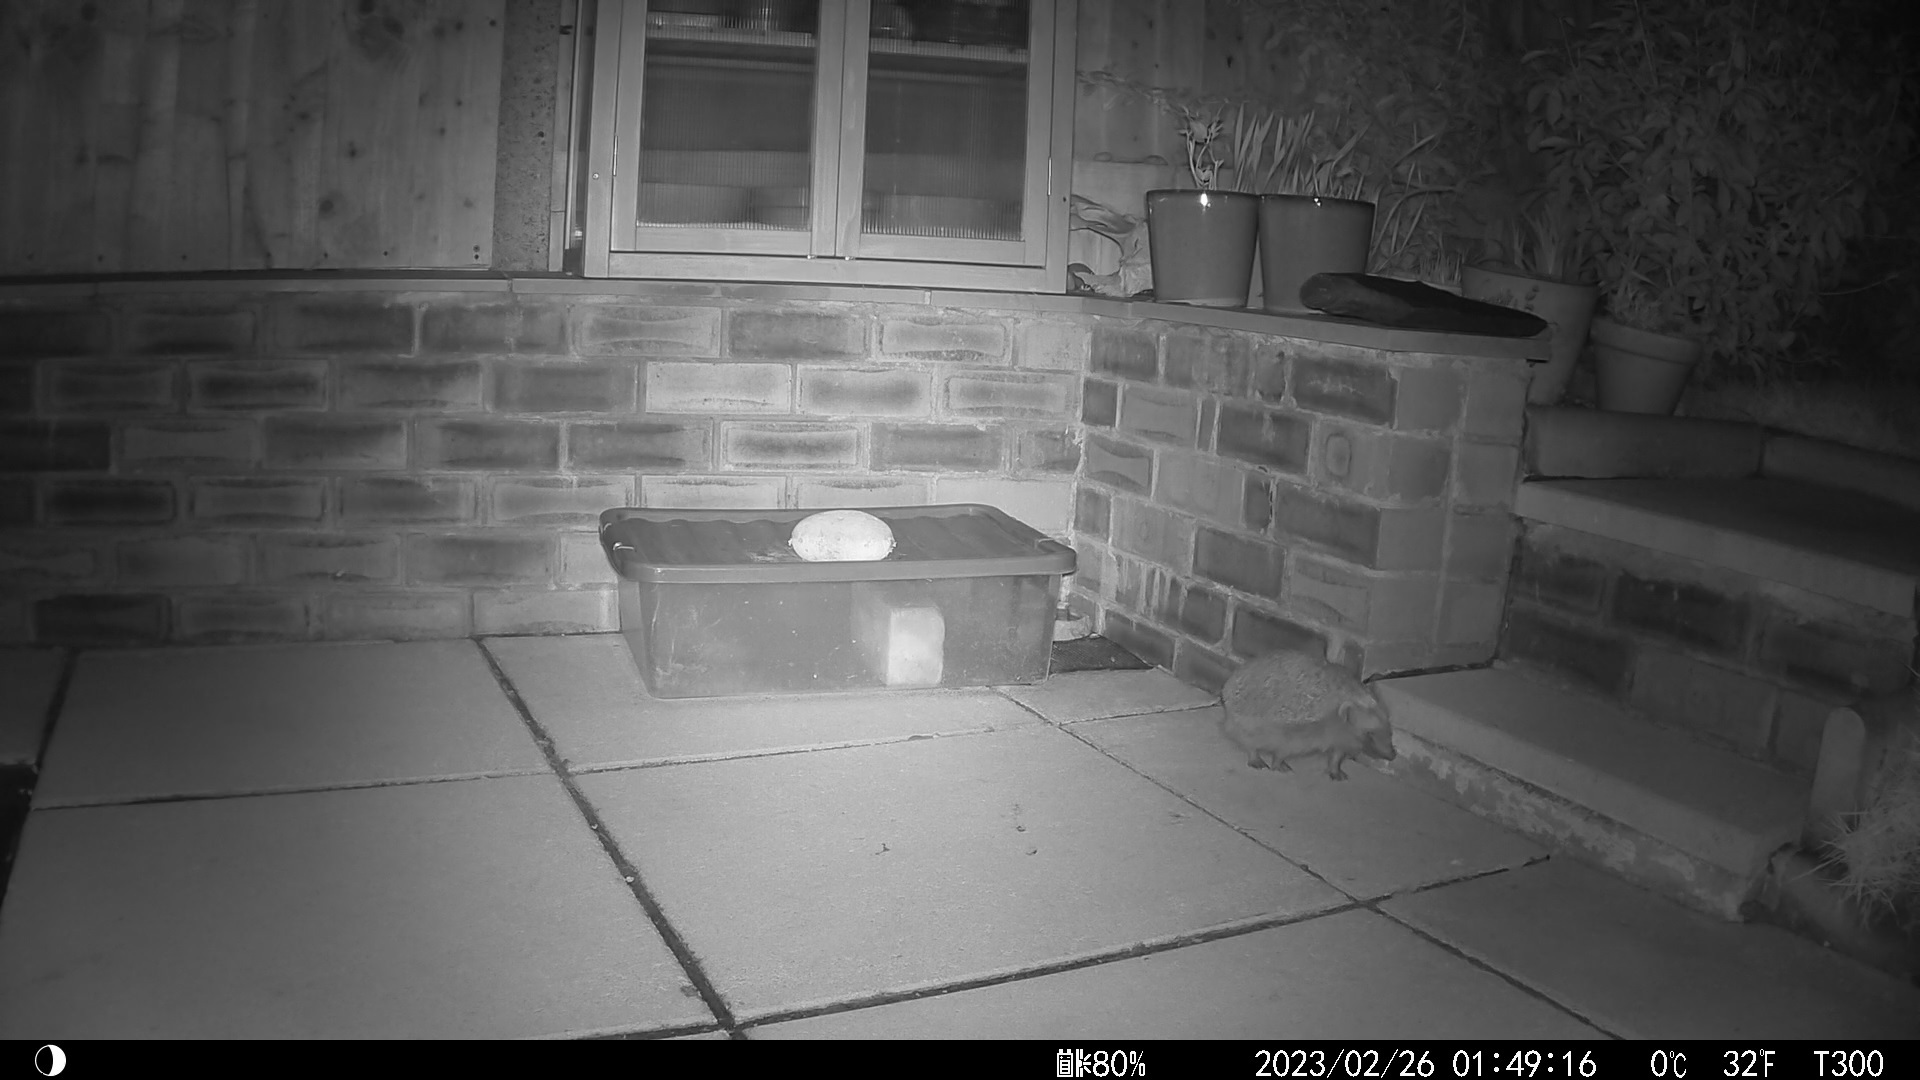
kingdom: Animalia
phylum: Chordata
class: Mammalia
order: Erinaceomorpha
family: Erinaceidae
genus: Erinaceus
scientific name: Erinaceus europaeus
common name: West european hedgehog
